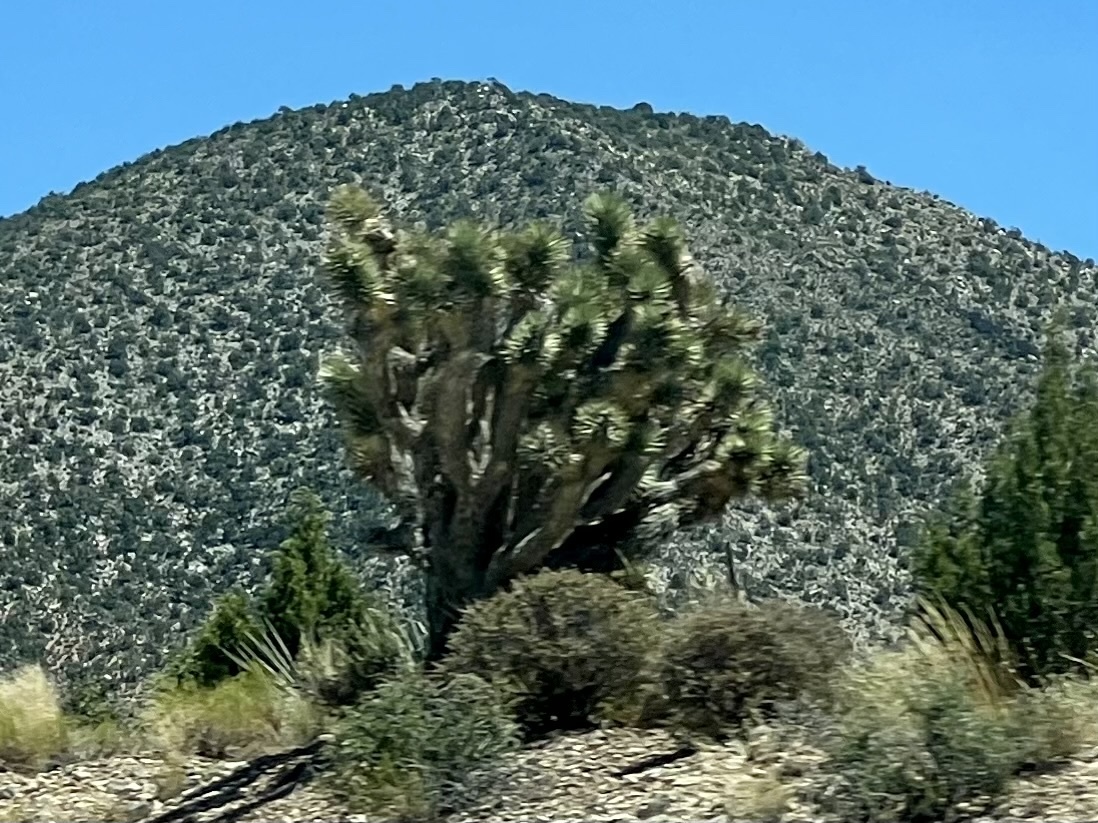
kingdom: Plantae
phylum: Tracheophyta
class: Liliopsida
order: Asparagales
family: Asparagaceae
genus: Yucca
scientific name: Yucca brevifolia
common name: Joshua tree
